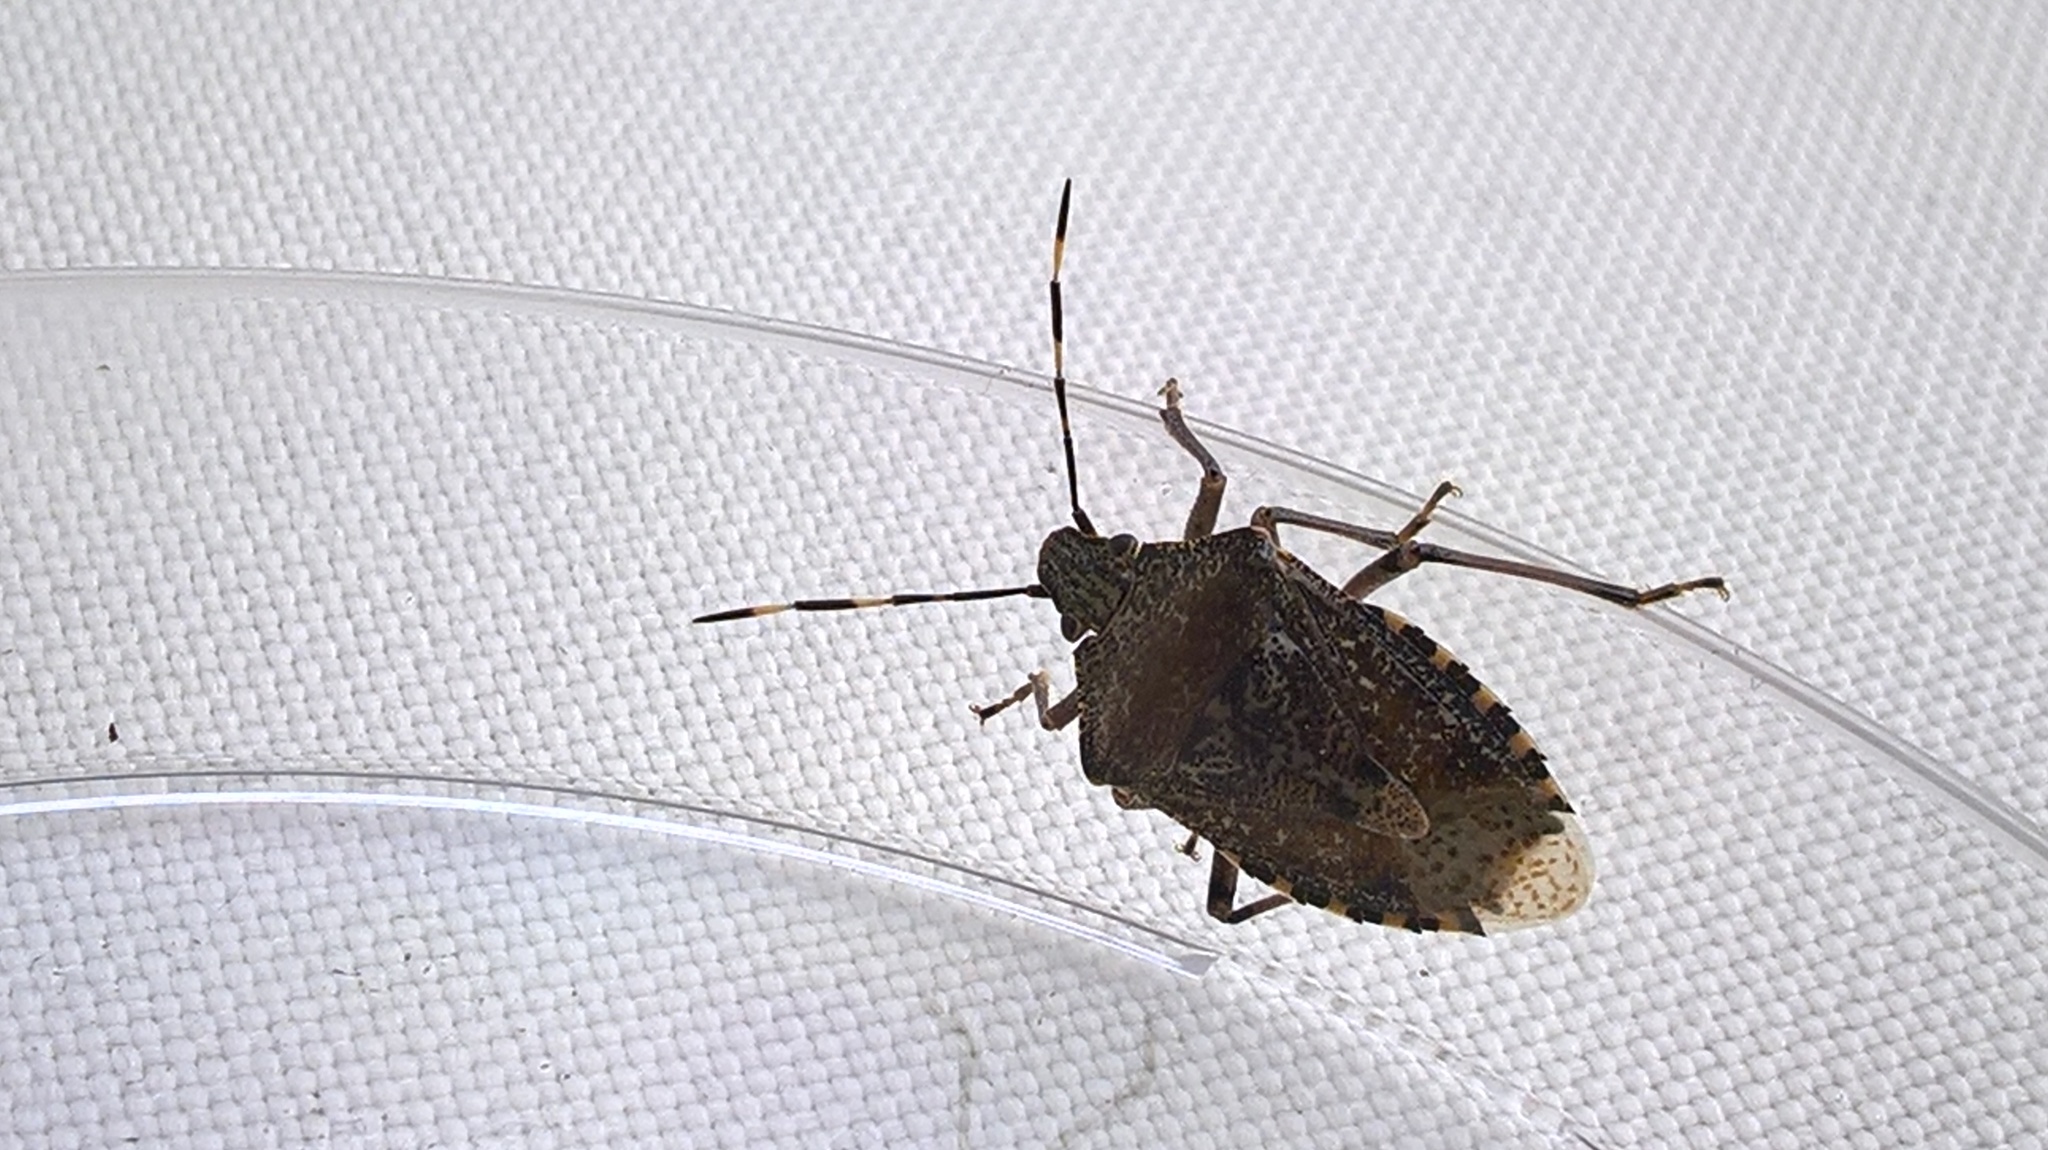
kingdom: Animalia
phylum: Arthropoda
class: Insecta
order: Hemiptera
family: Pentatomidae
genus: Rhaphigaster
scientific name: Rhaphigaster nebulosa
